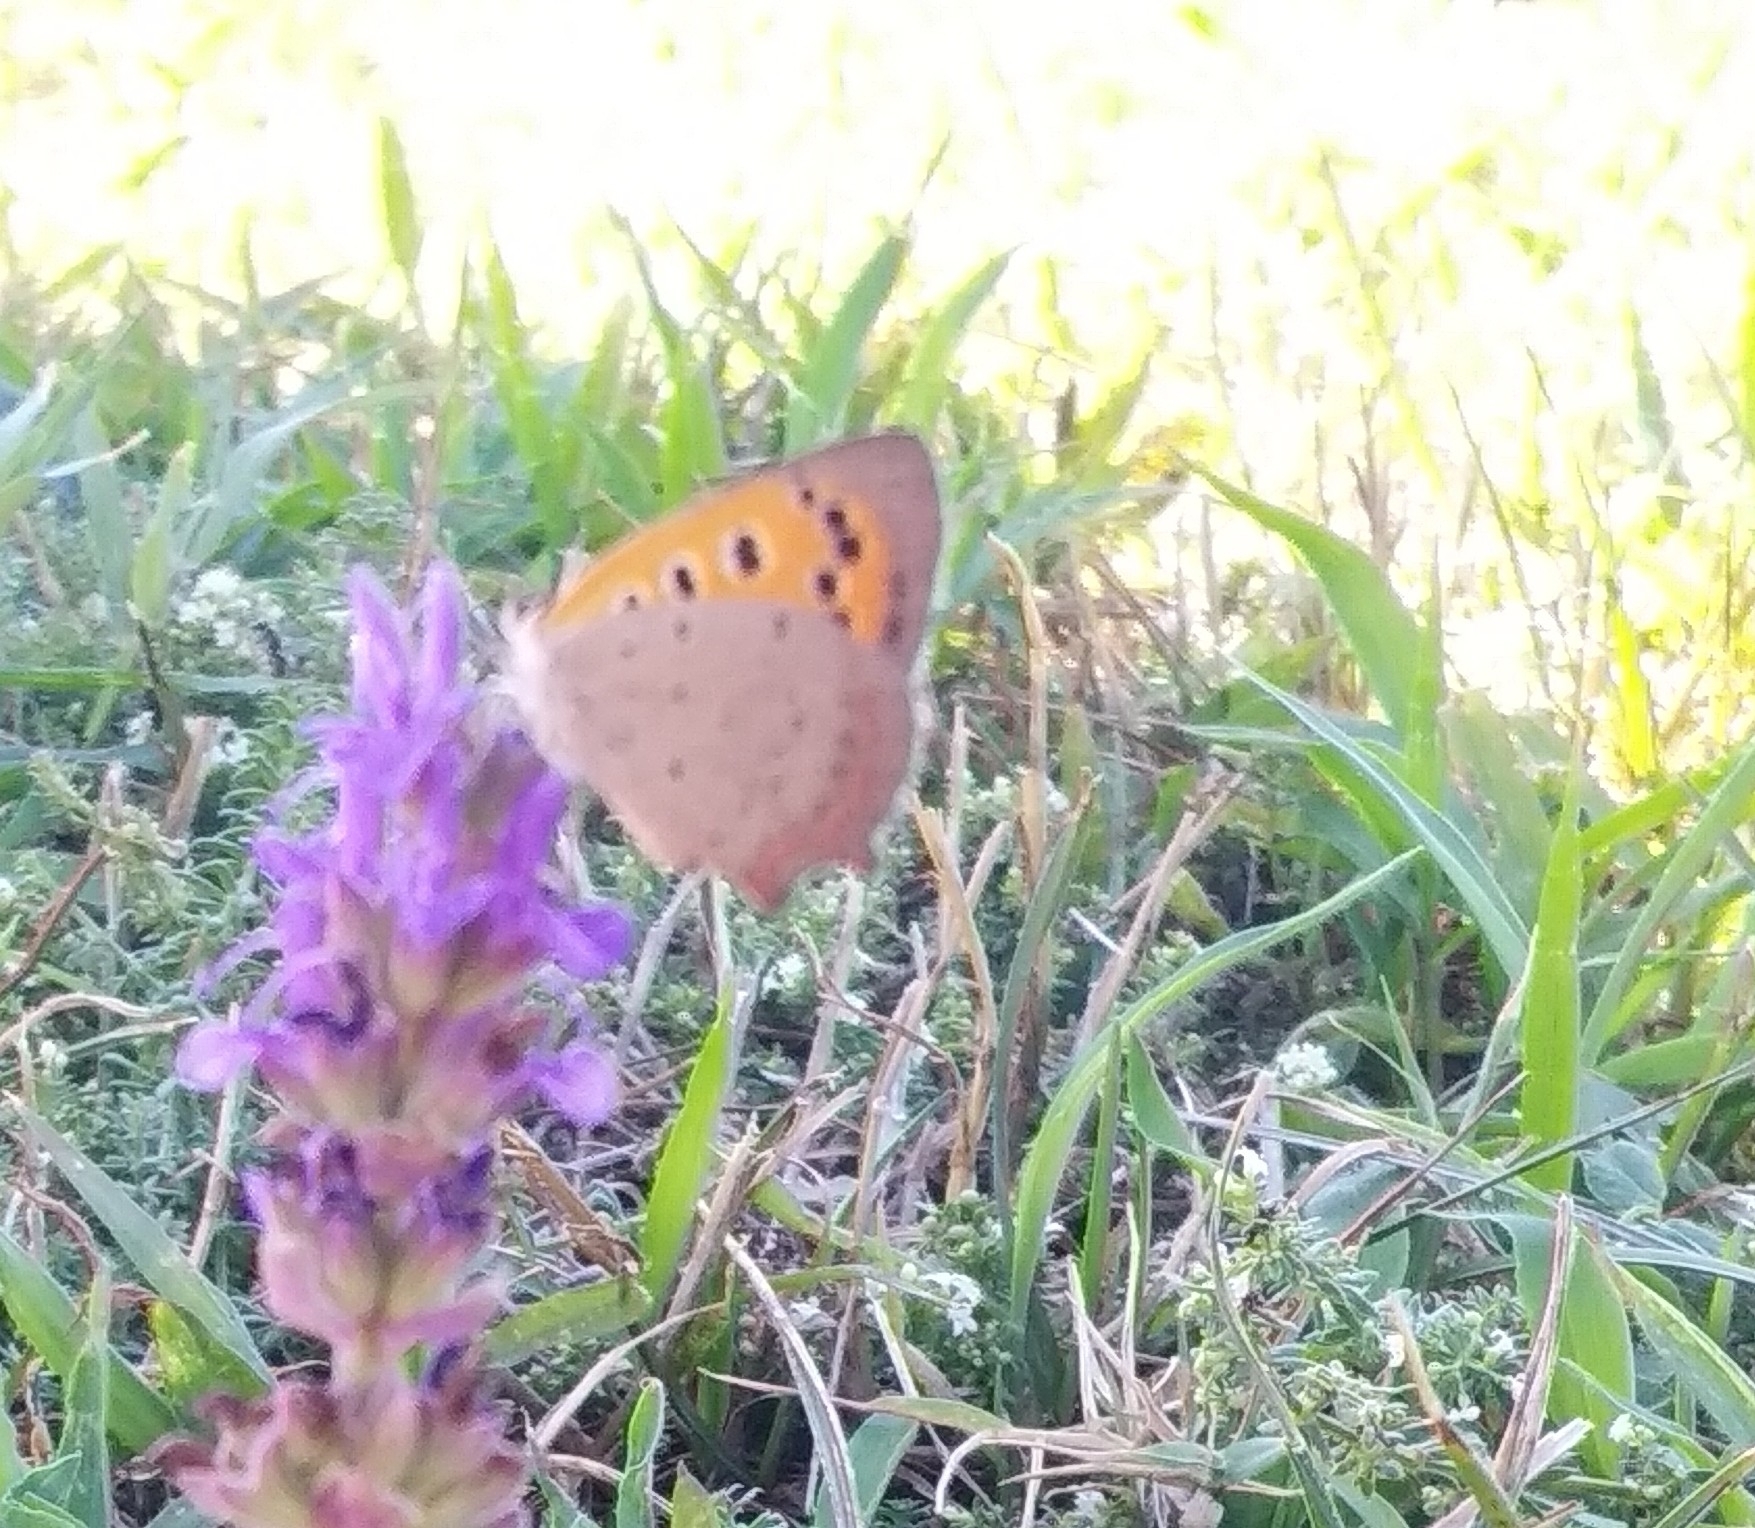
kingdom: Animalia
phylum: Arthropoda
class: Insecta
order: Lepidoptera
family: Lycaenidae
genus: Lycaena
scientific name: Lycaena phlaeas
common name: Small copper
